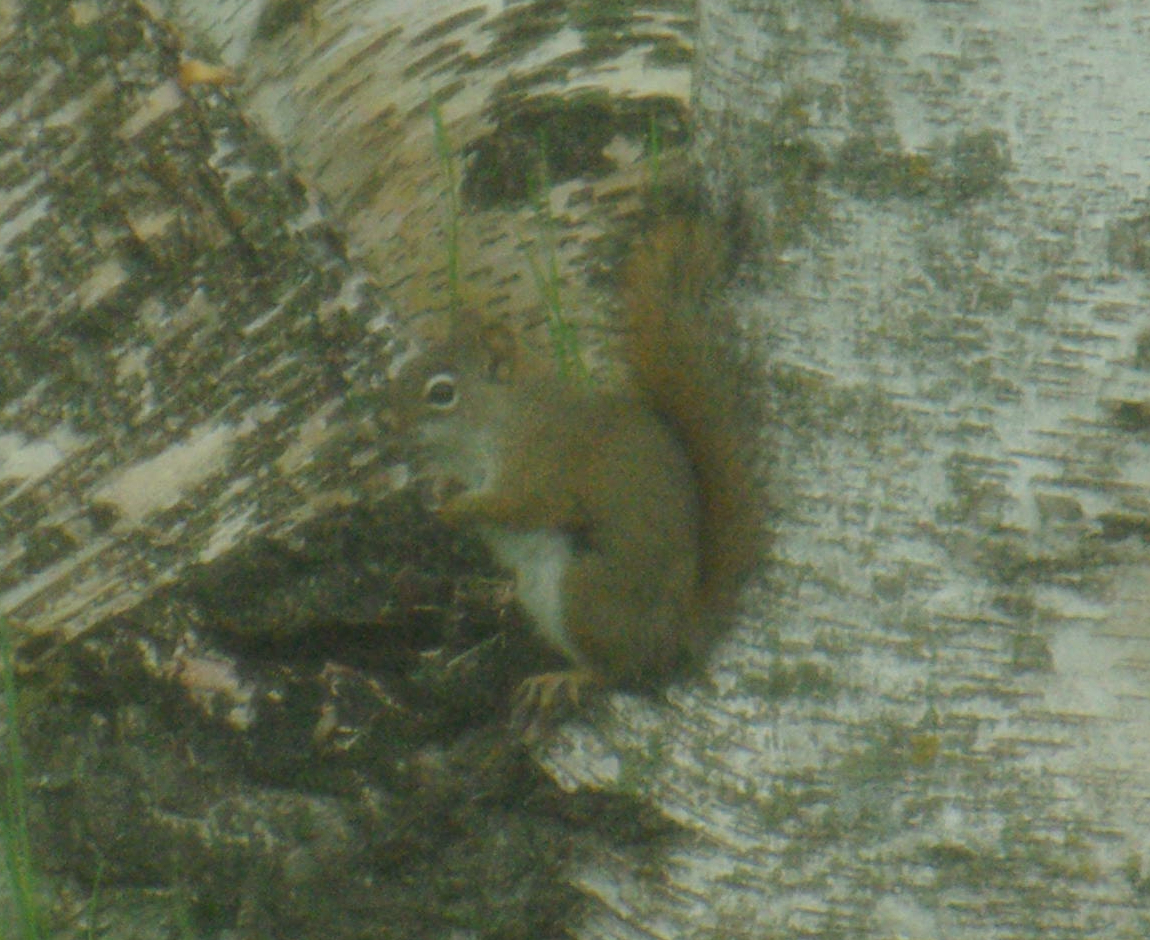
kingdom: Animalia
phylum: Chordata
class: Mammalia
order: Rodentia
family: Sciuridae
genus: Tamiasciurus
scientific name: Tamiasciurus hudsonicus
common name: Red squirrel
